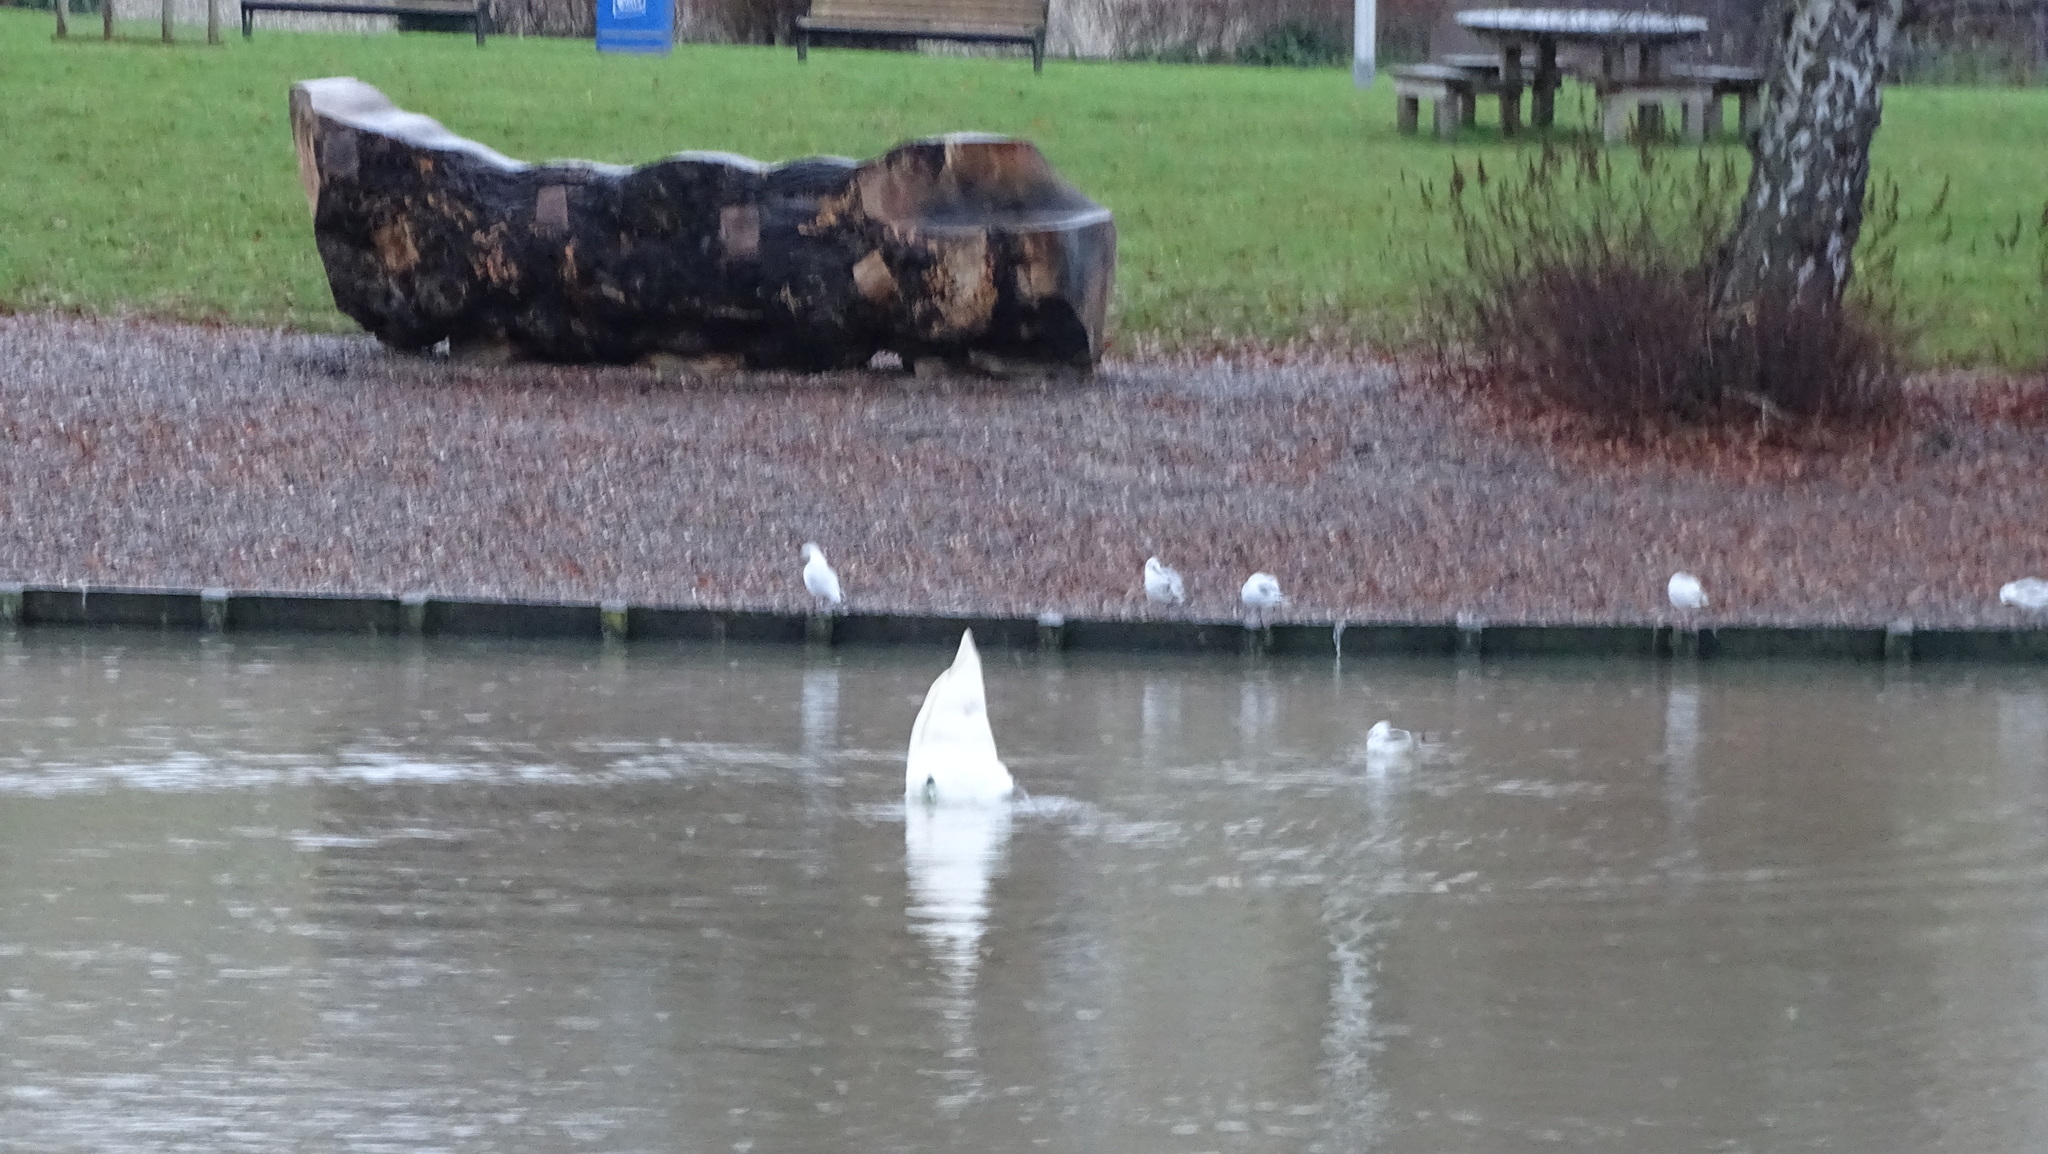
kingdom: Animalia
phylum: Chordata
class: Aves
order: Anseriformes
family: Anatidae
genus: Cygnus
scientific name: Cygnus
